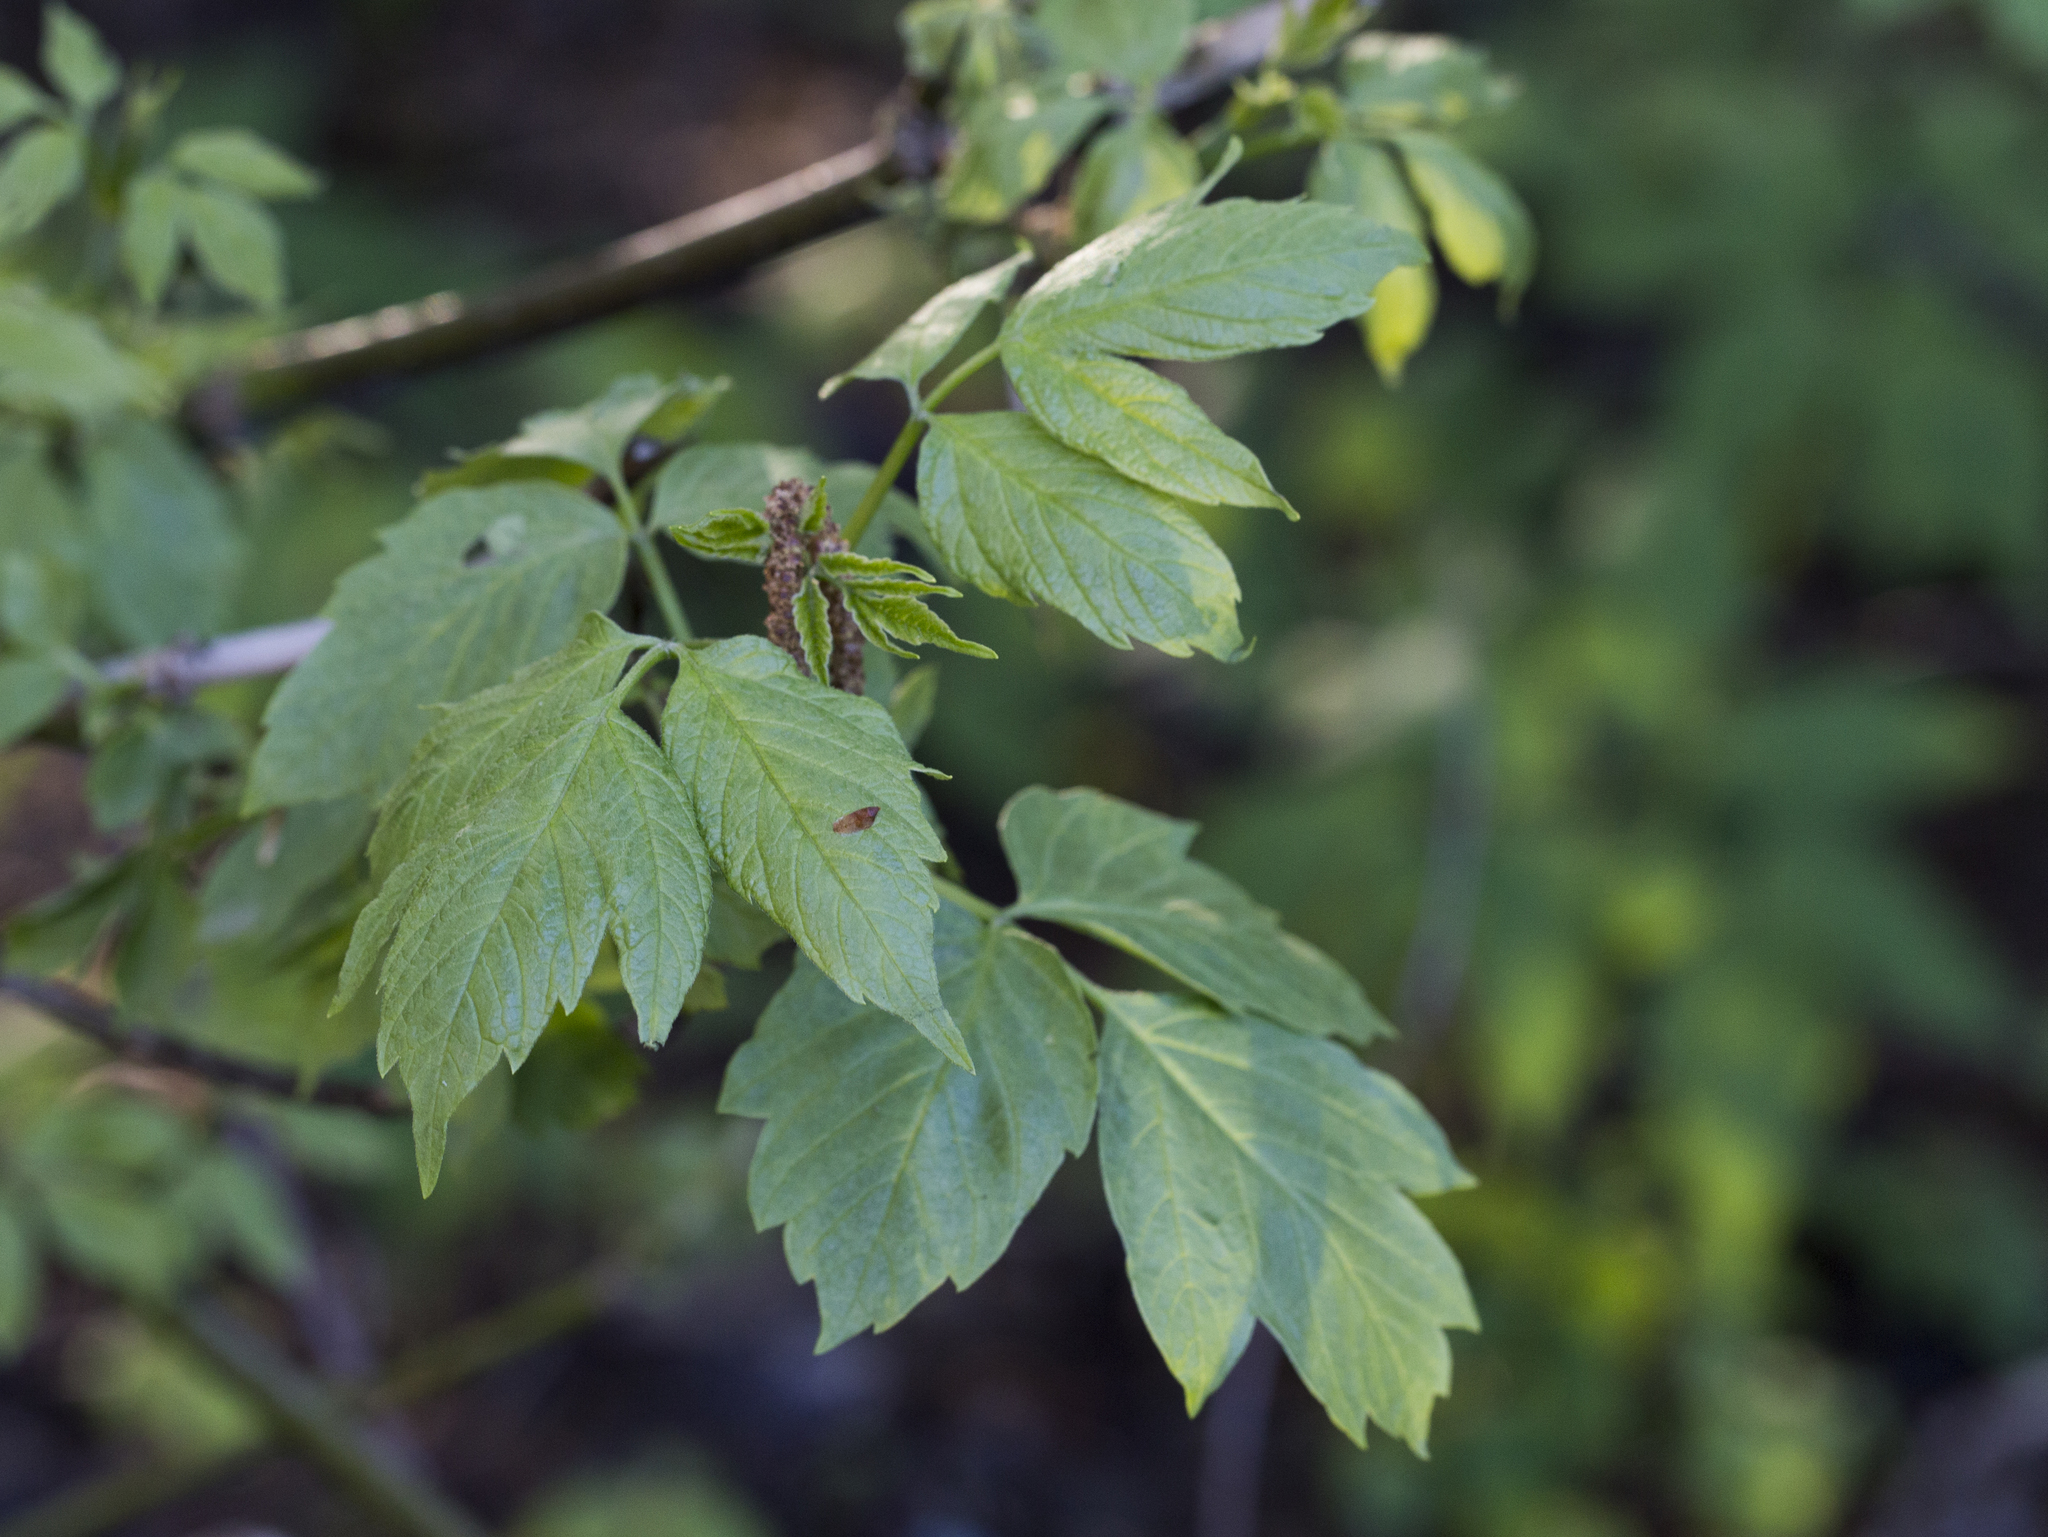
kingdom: Plantae
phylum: Tracheophyta
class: Magnoliopsida
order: Sapindales
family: Sapindaceae
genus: Acer
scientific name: Acer negundo
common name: Ashleaf maple
